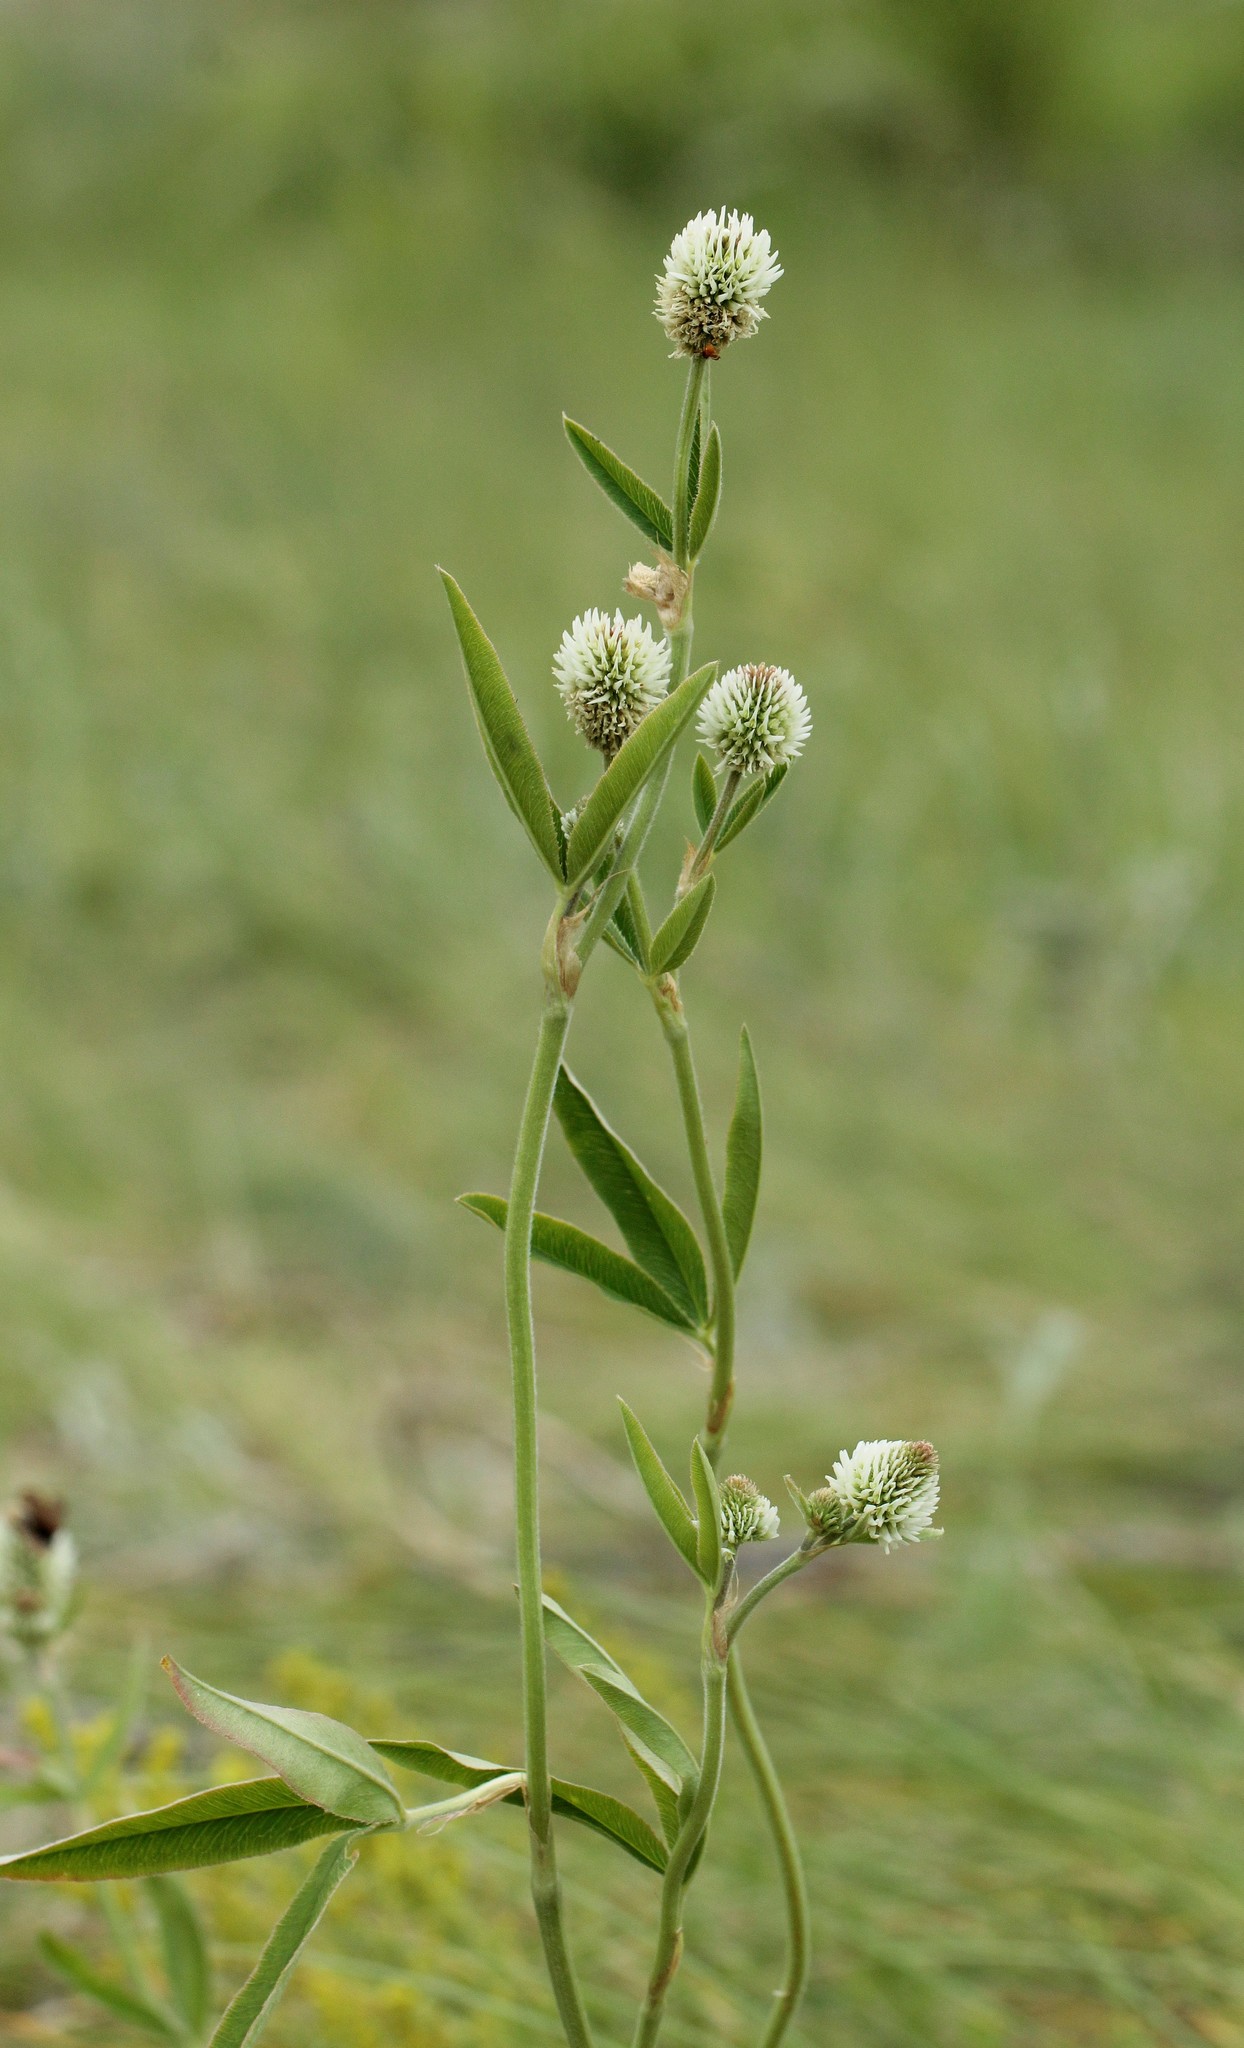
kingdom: Plantae
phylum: Tracheophyta
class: Magnoliopsida
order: Fabales
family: Fabaceae
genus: Trifolium
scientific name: Trifolium montanum
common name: Mountain clover
